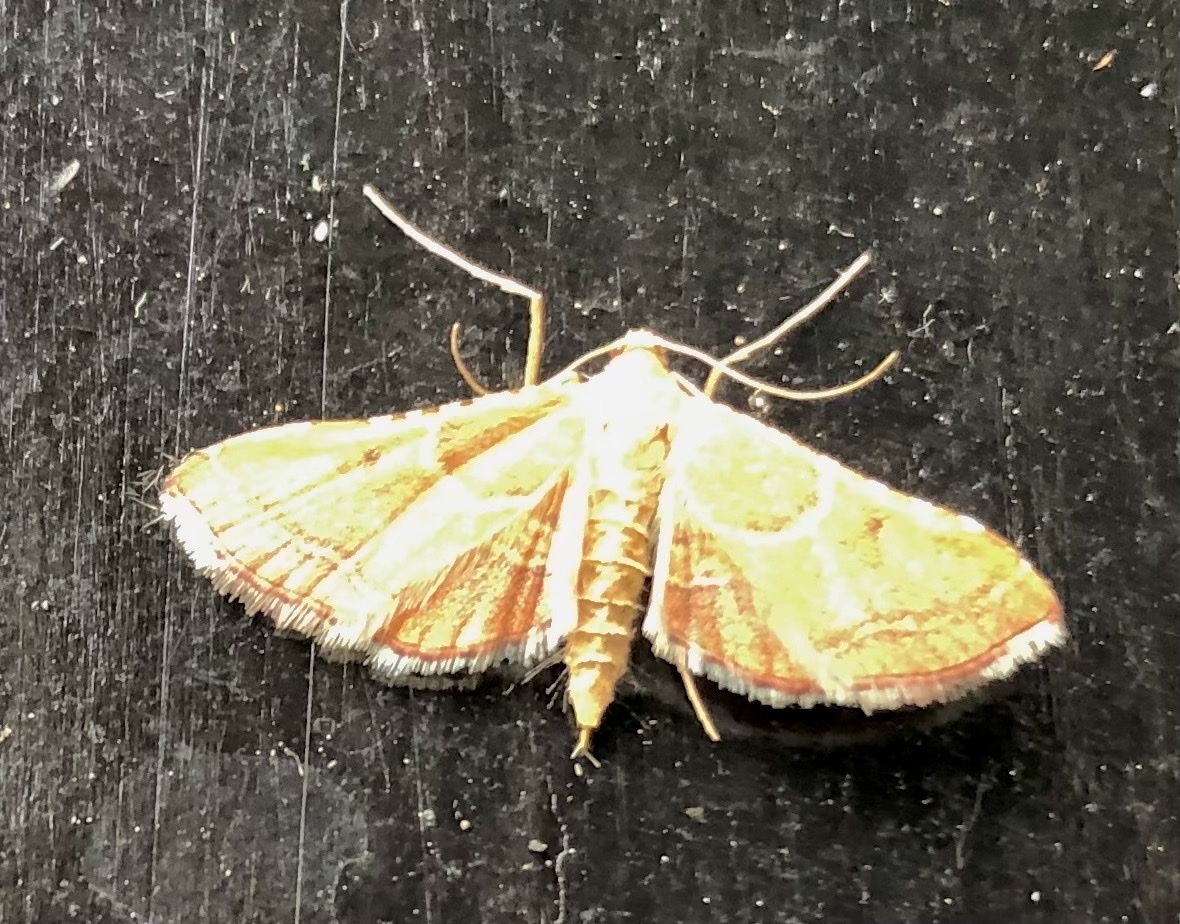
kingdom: Animalia
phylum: Arthropoda
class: Insecta
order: Lepidoptera
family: Pyralidae
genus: Endotricha
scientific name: Endotricha flammealis
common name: Rosy tabby
